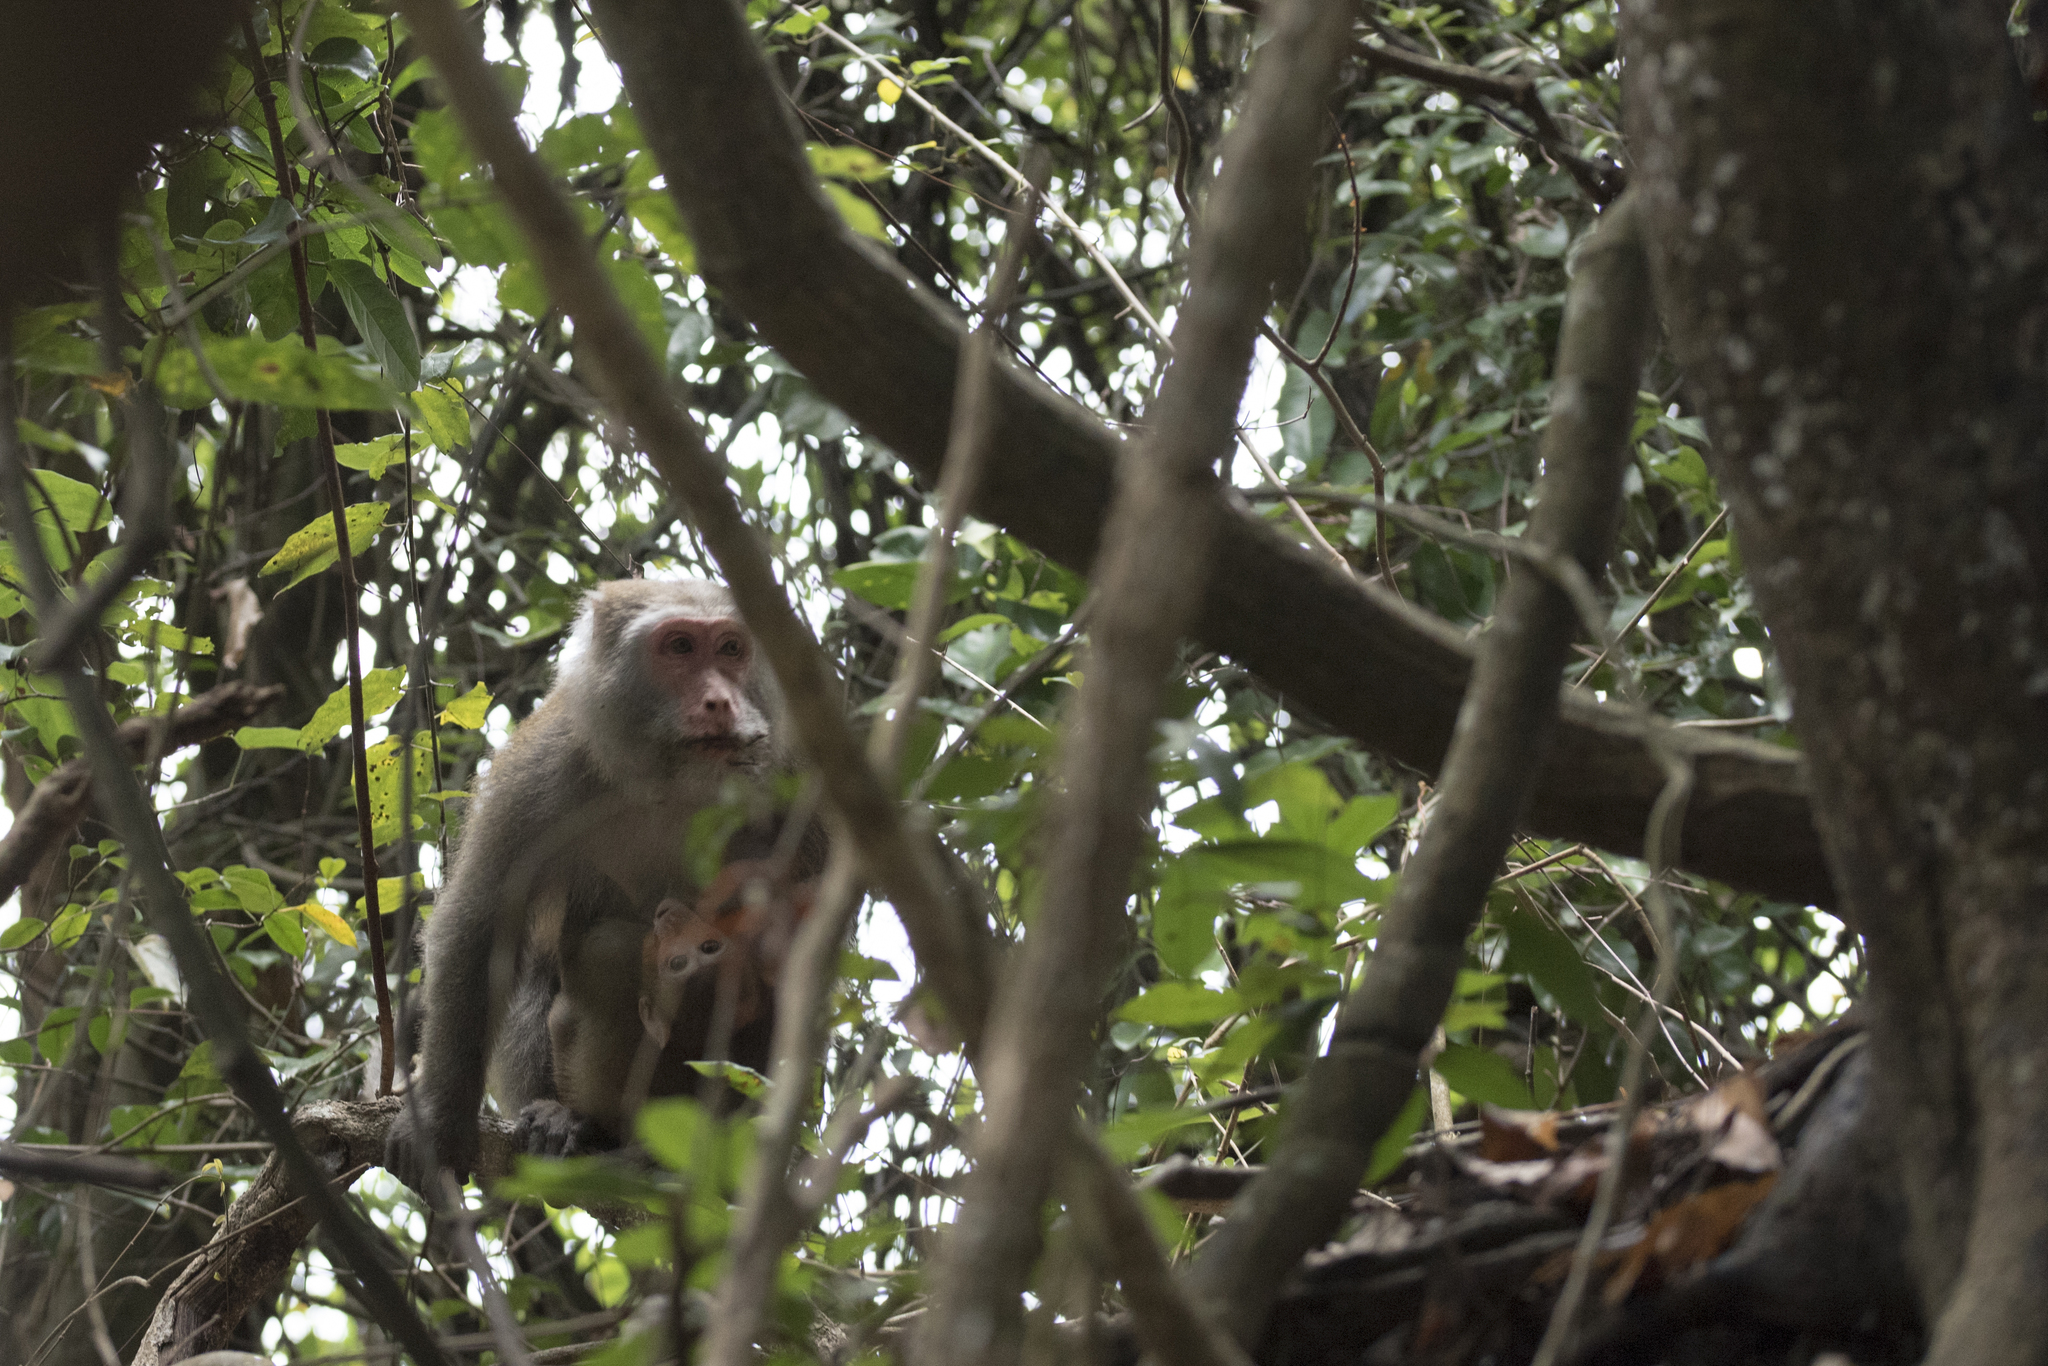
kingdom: Animalia
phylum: Chordata
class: Mammalia
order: Primates
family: Cercopithecidae
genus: Macaca
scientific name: Macaca cyclopis
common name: Formosan rock macaque
